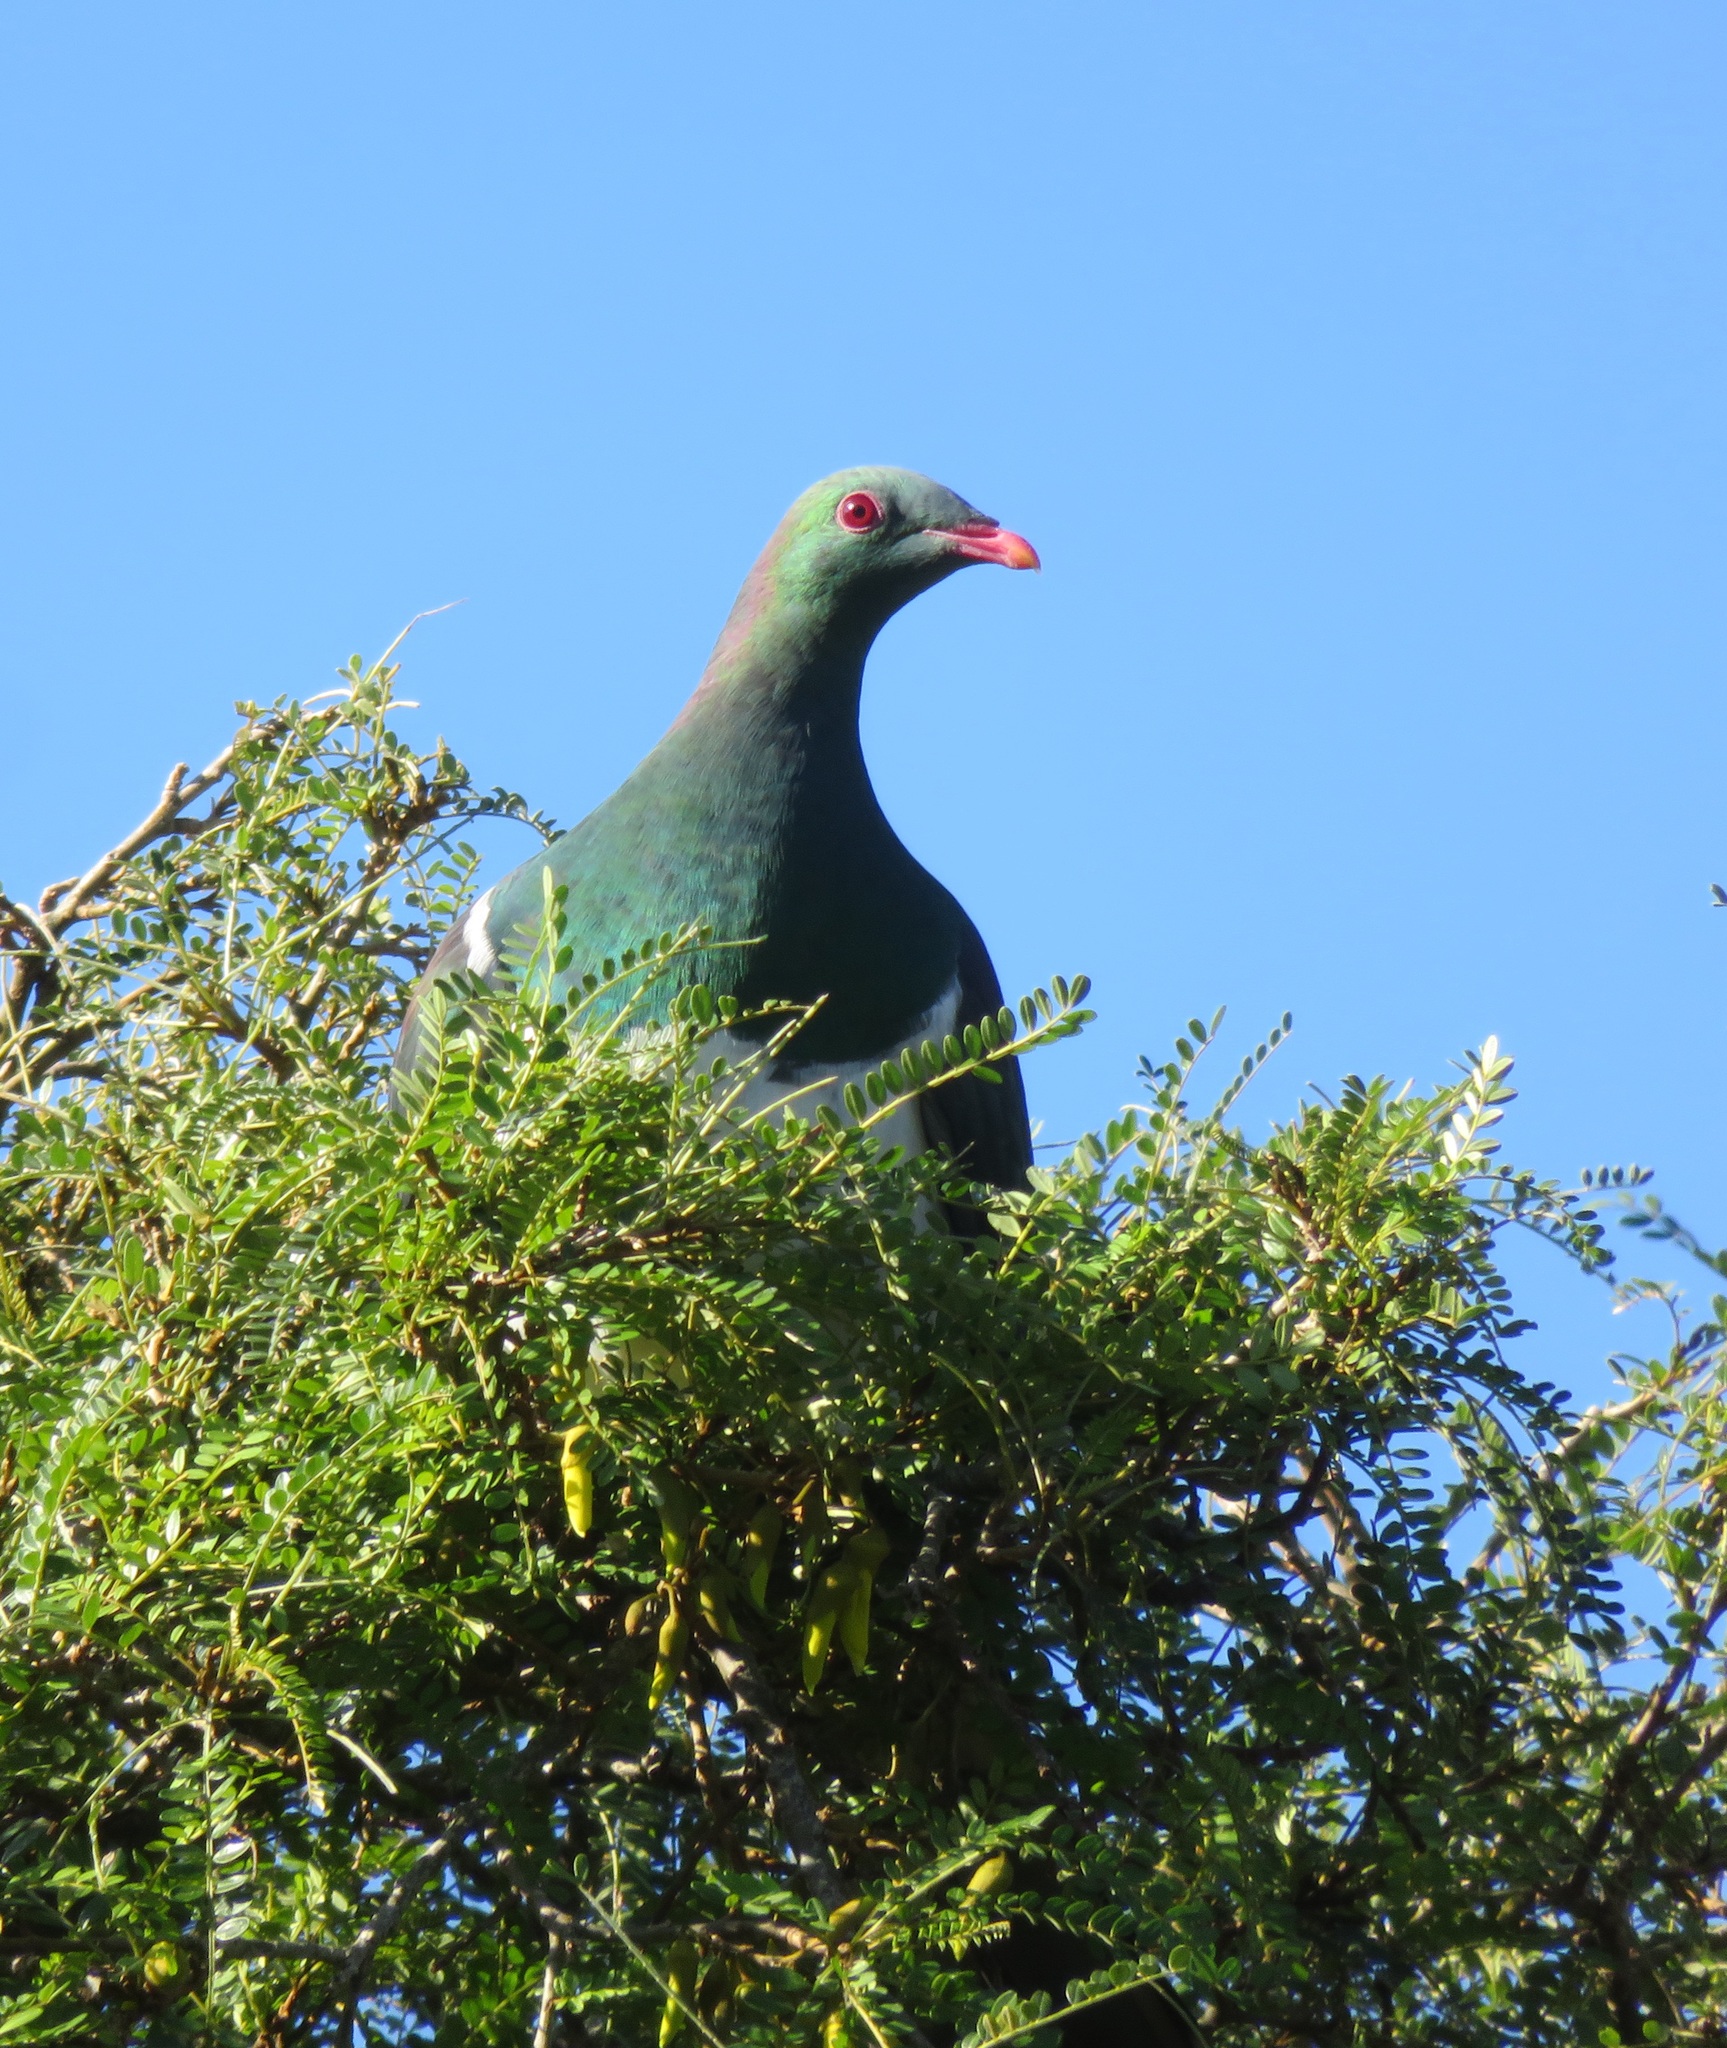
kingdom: Animalia
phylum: Chordata
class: Aves
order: Columbiformes
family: Columbidae
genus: Hemiphaga
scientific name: Hemiphaga novaeseelandiae
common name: New zealand pigeon
